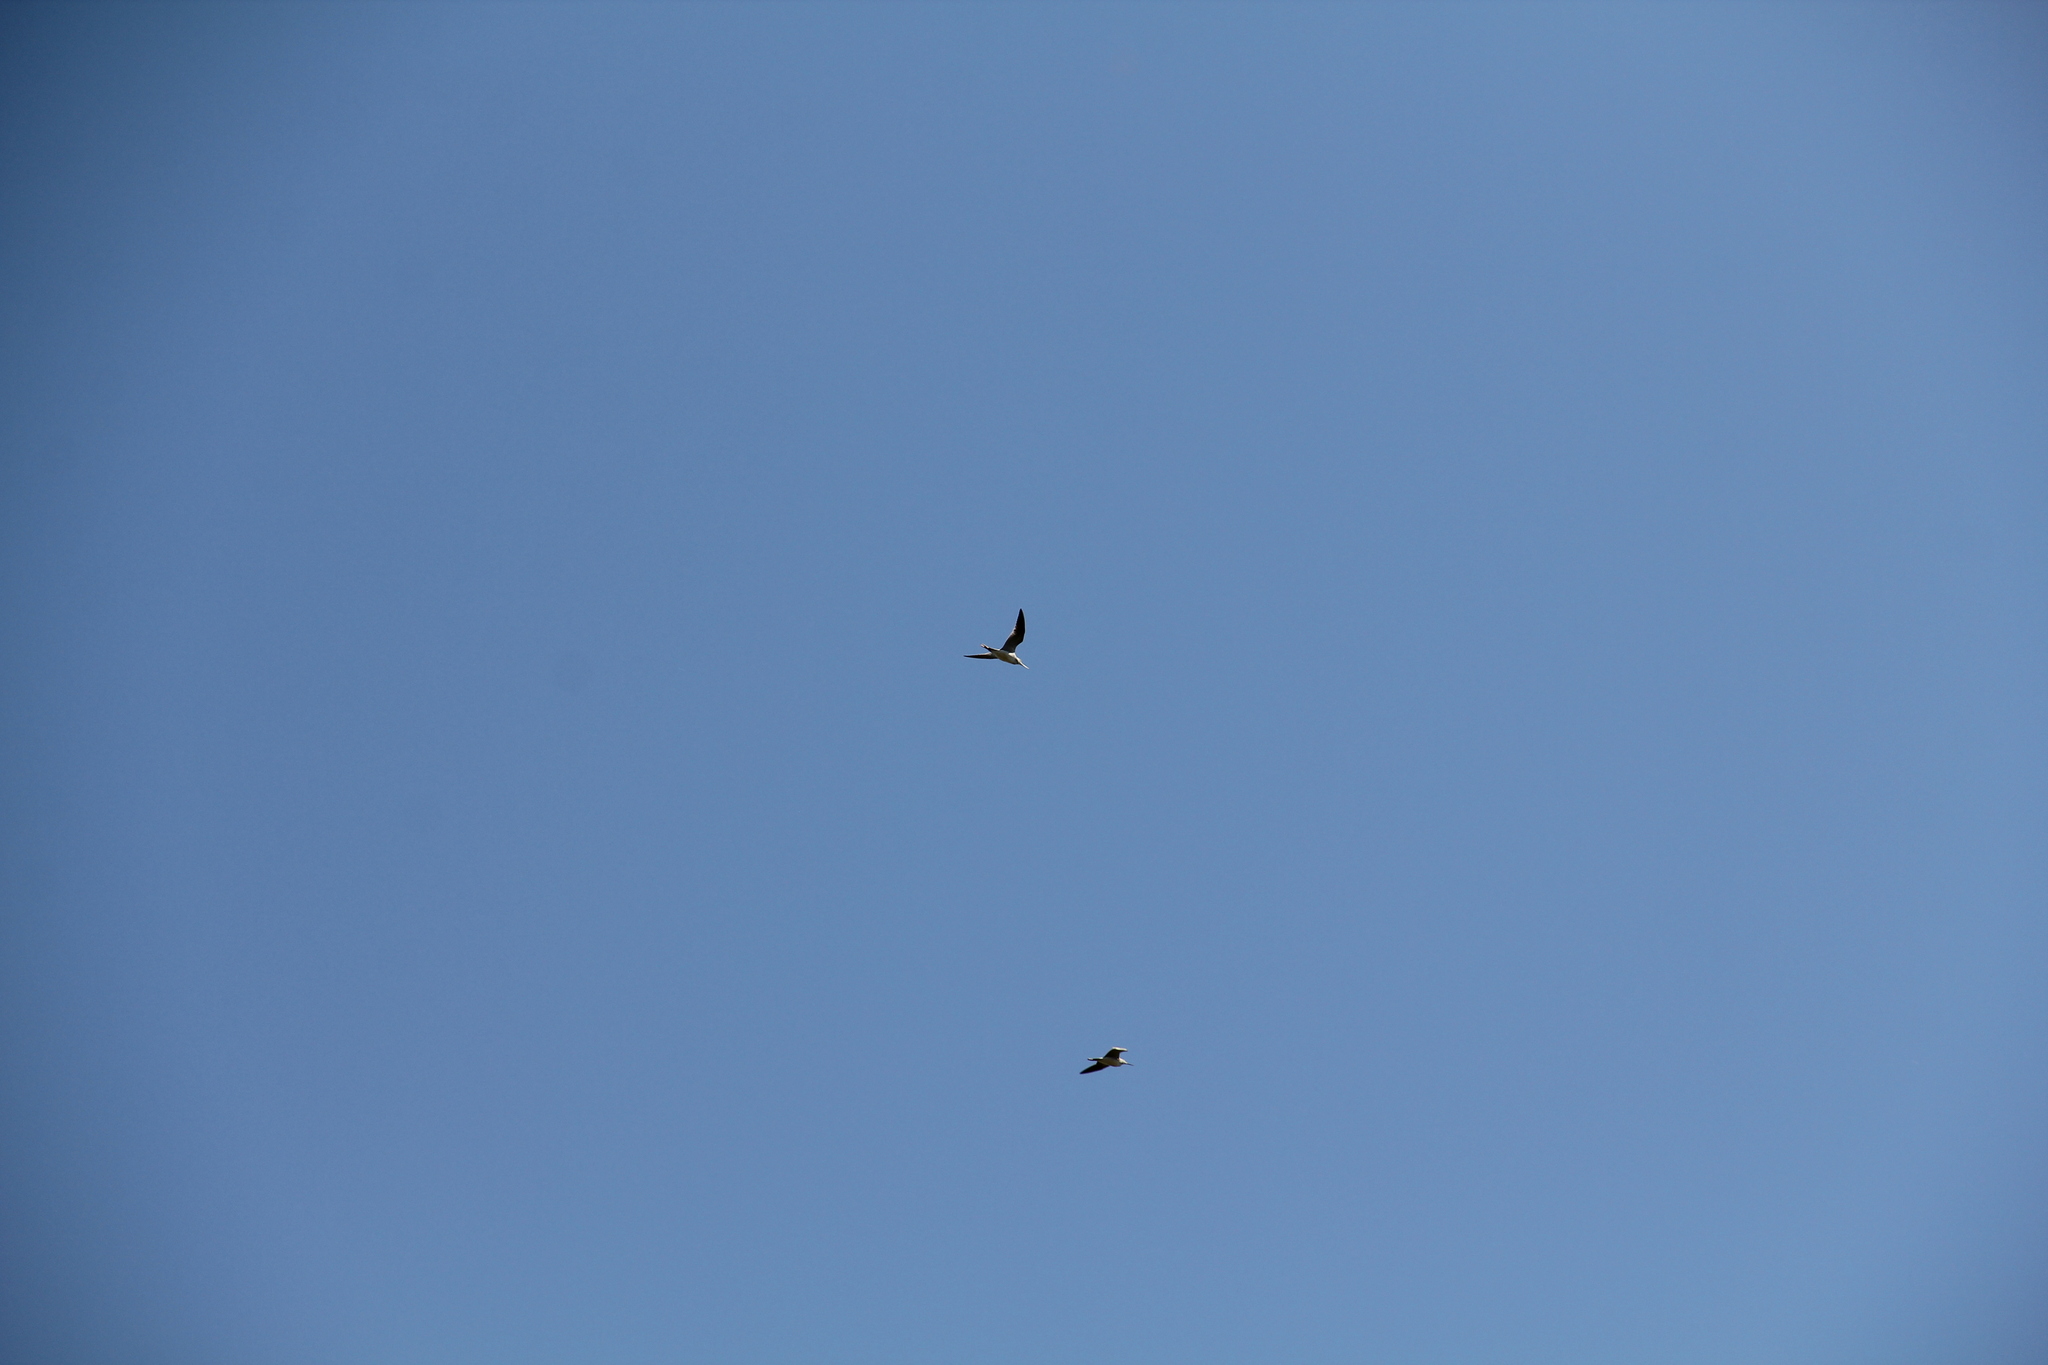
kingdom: Animalia
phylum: Chordata
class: Aves
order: Charadriiformes
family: Scolopacidae
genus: Tringa
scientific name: Tringa melanoleuca
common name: Greater yellowlegs
